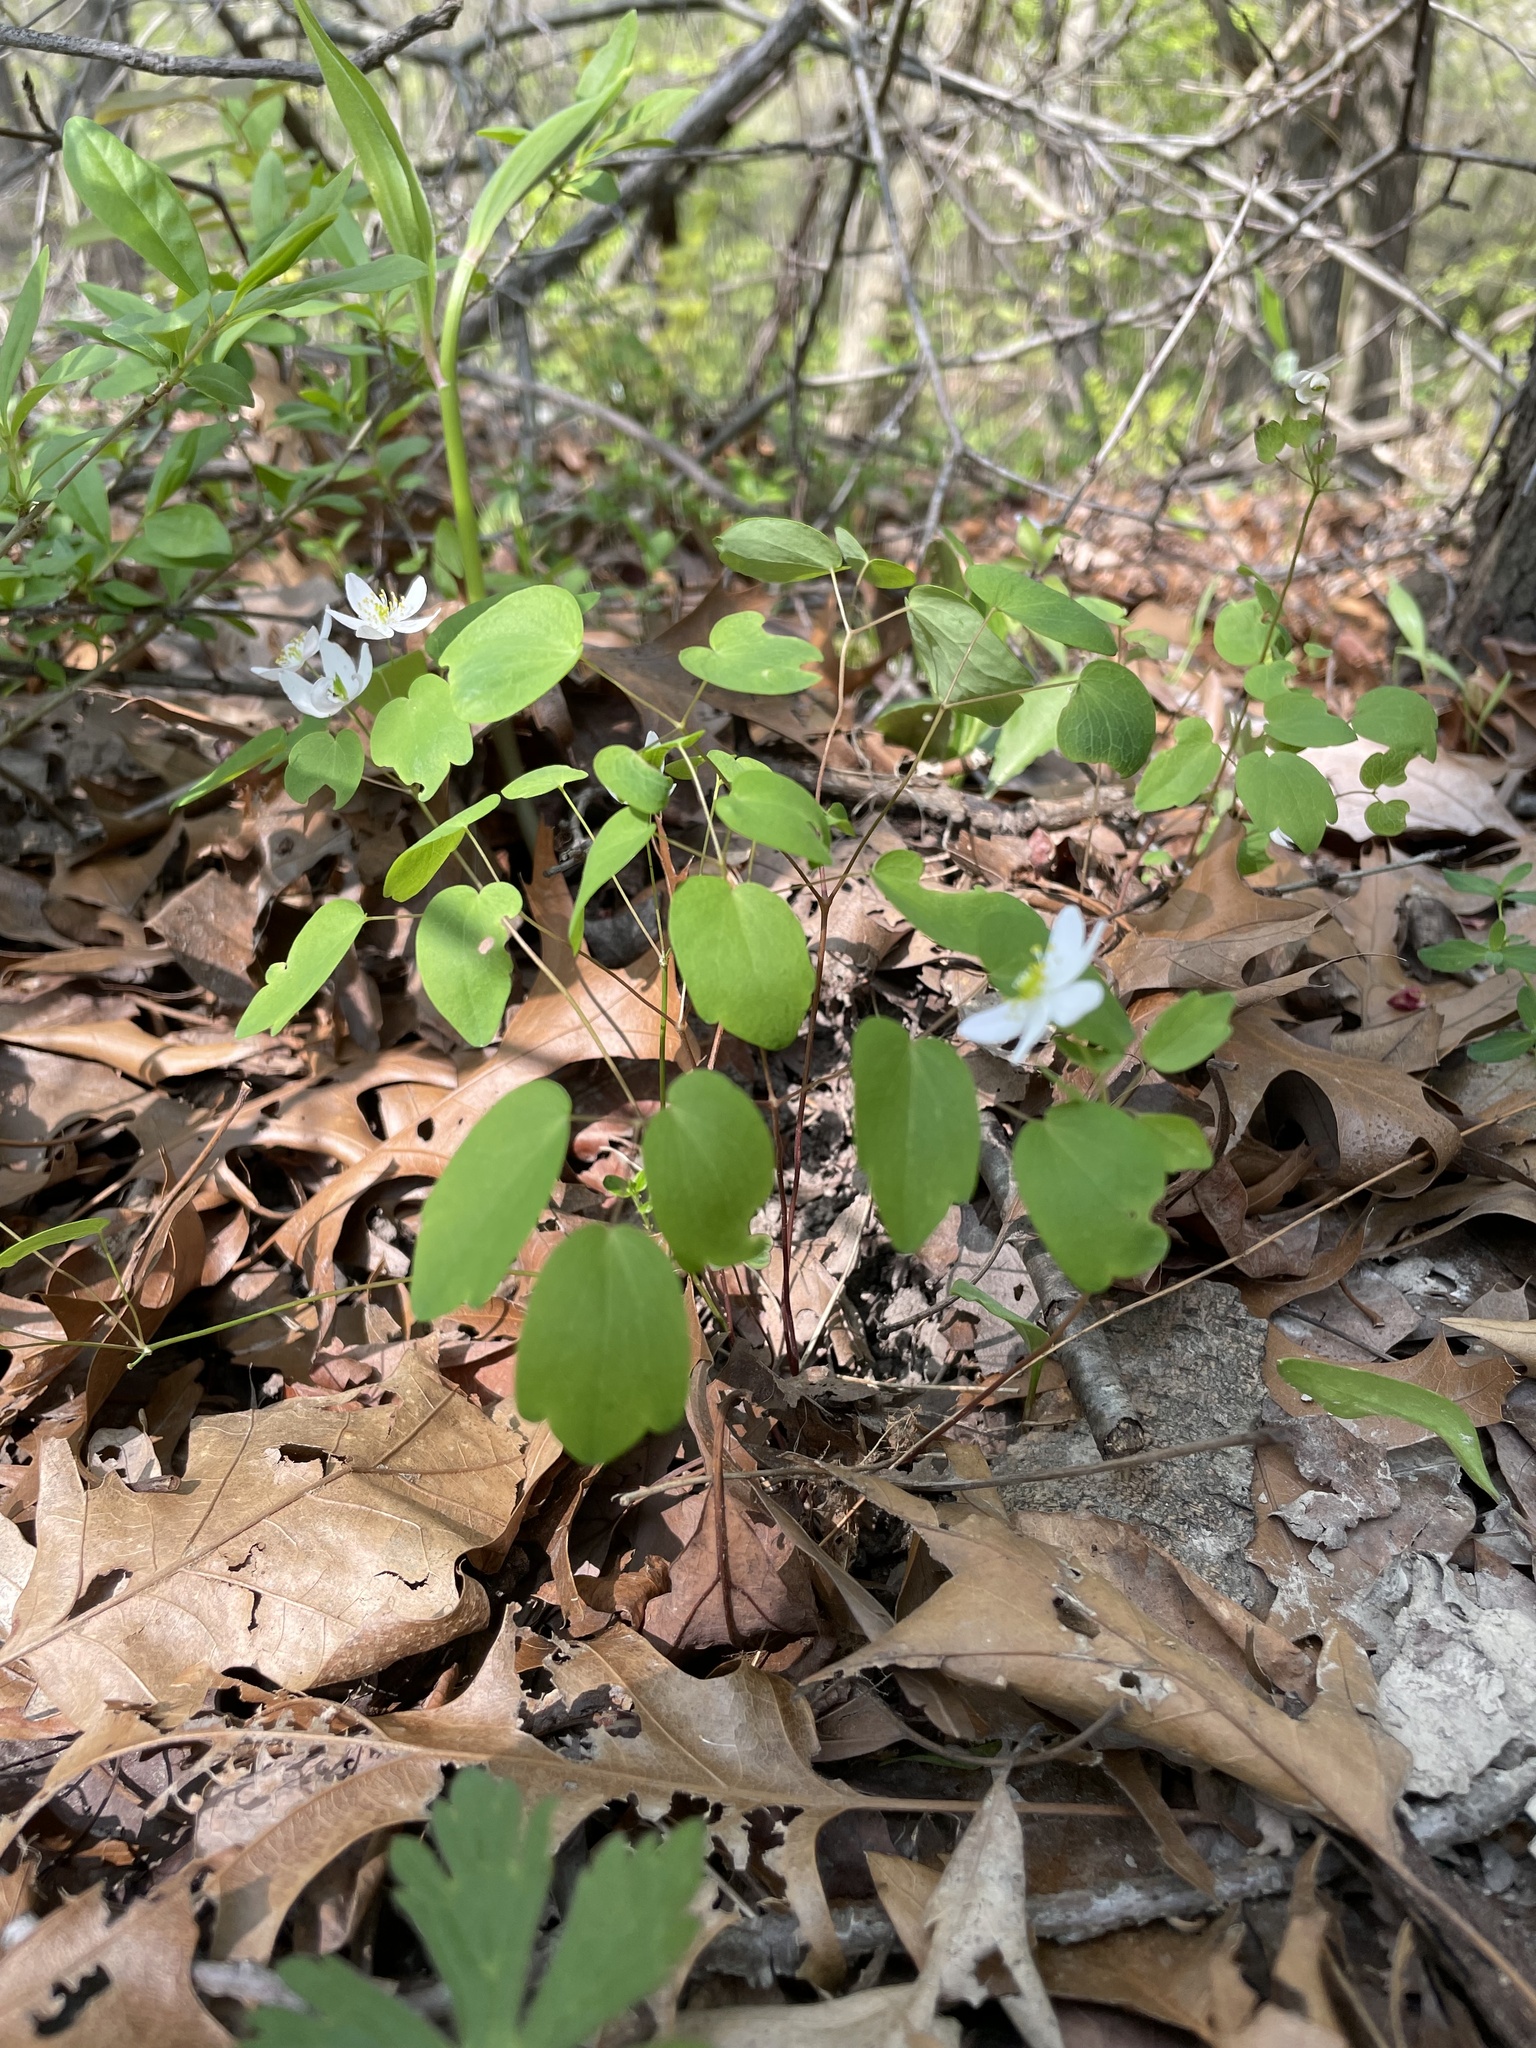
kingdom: Plantae
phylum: Tracheophyta
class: Magnoliopsida
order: Ranunculales
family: Ranunculaceae
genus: Thalictrum
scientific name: Thalictrum thalictroides
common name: Rue-anemone
